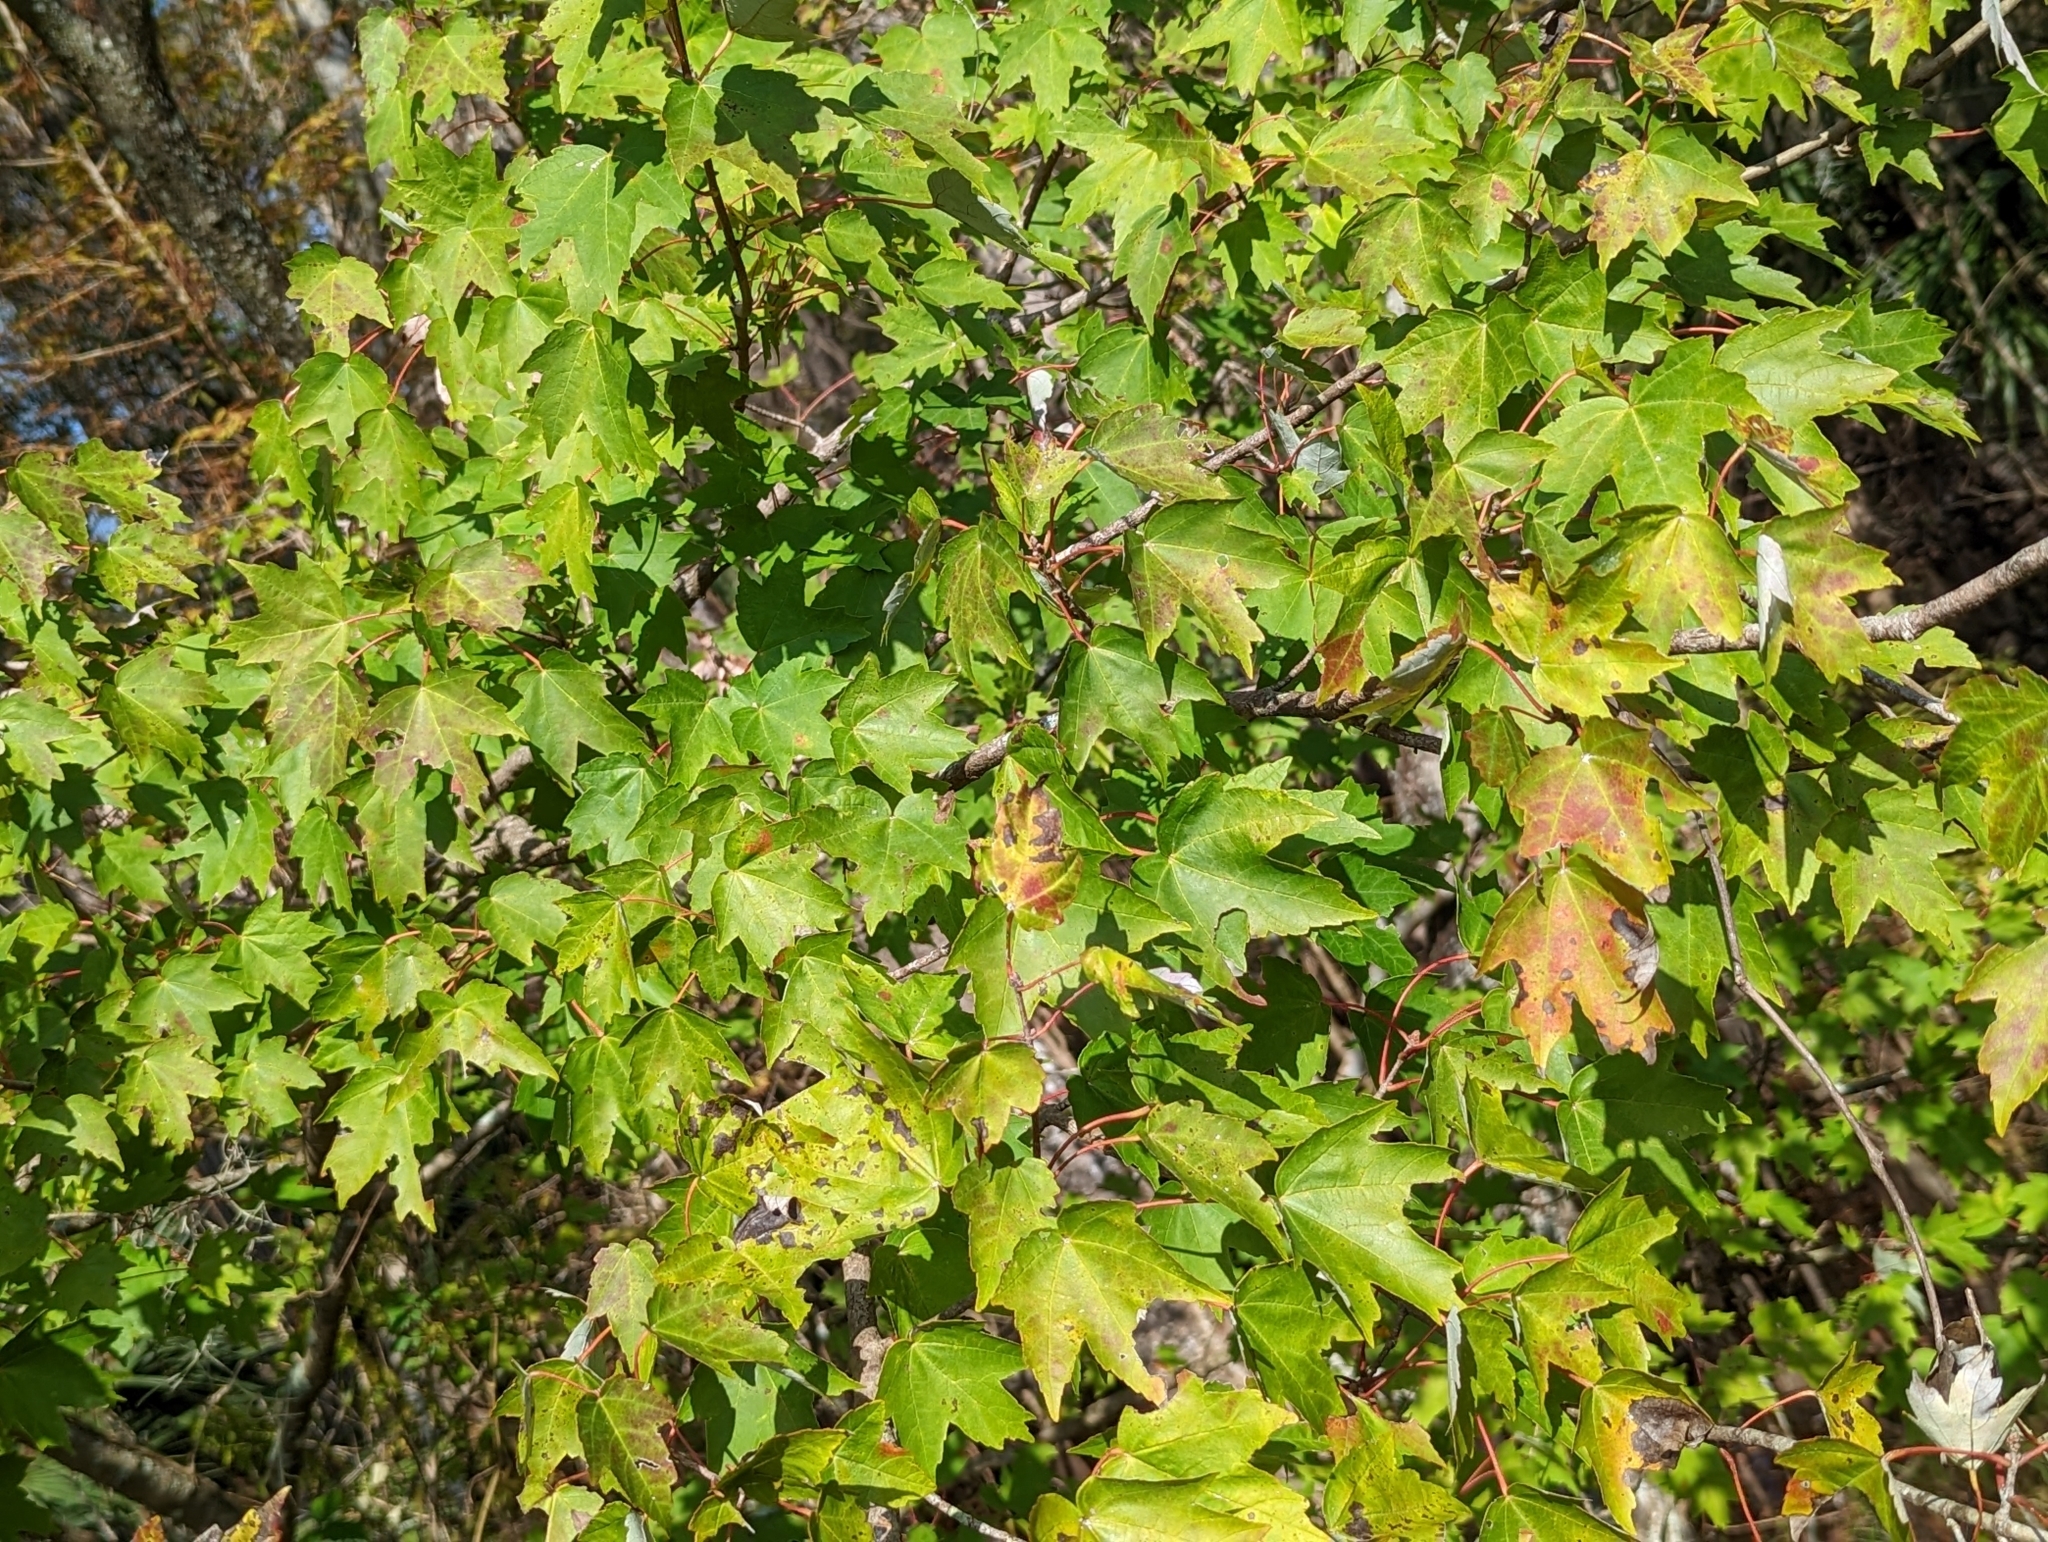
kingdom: Plantae
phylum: Tracheophyta
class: Magnoliopsida
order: Sapindales
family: Sapindaceae
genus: Acer
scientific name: Acer rubrum
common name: Red maple
